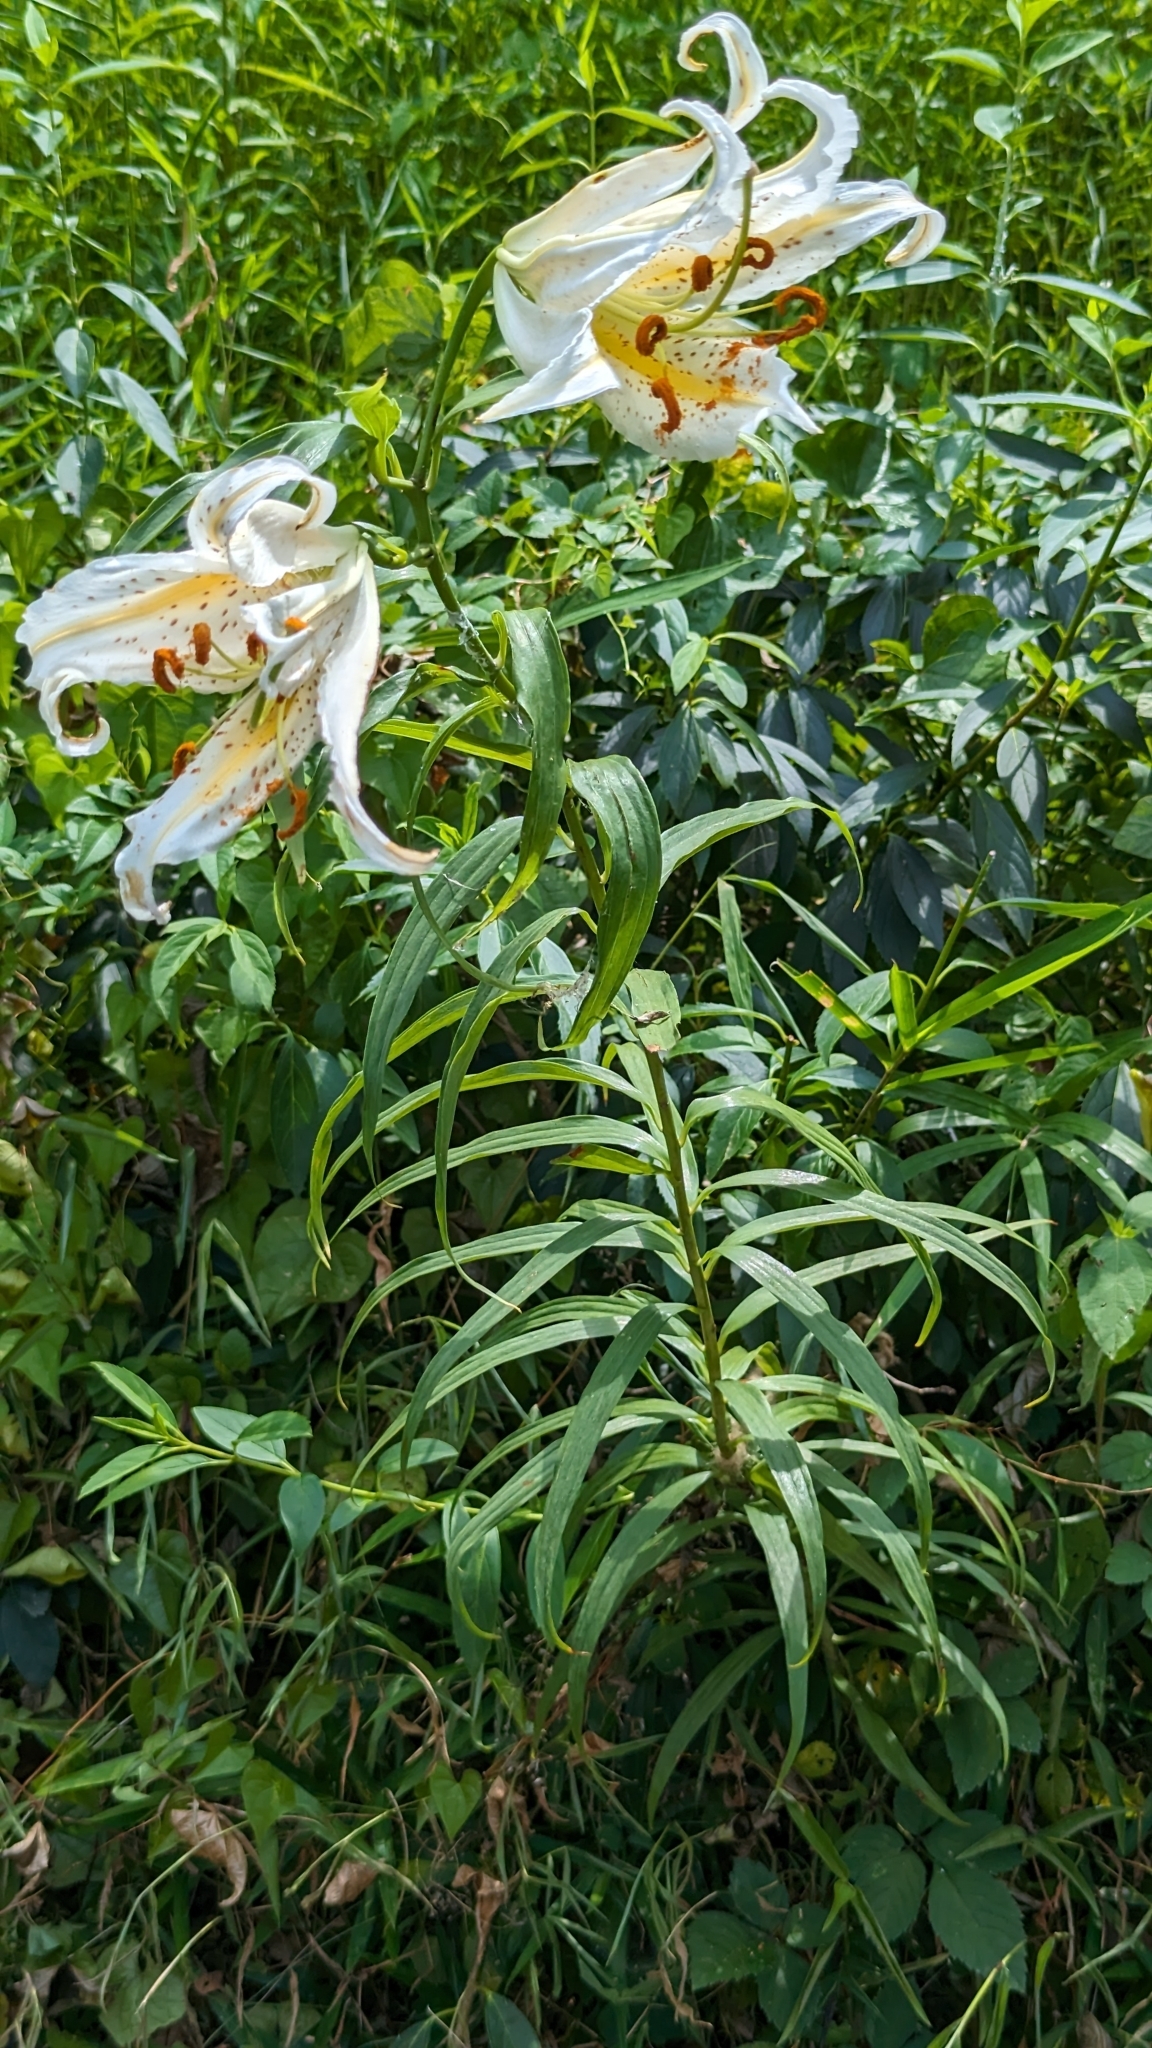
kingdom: Plantae
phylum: Tracheophyta
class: Liliopsida
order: Liliales
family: Liliaceae
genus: Lilium
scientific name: Lilium auratum
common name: Golden-ray lily
